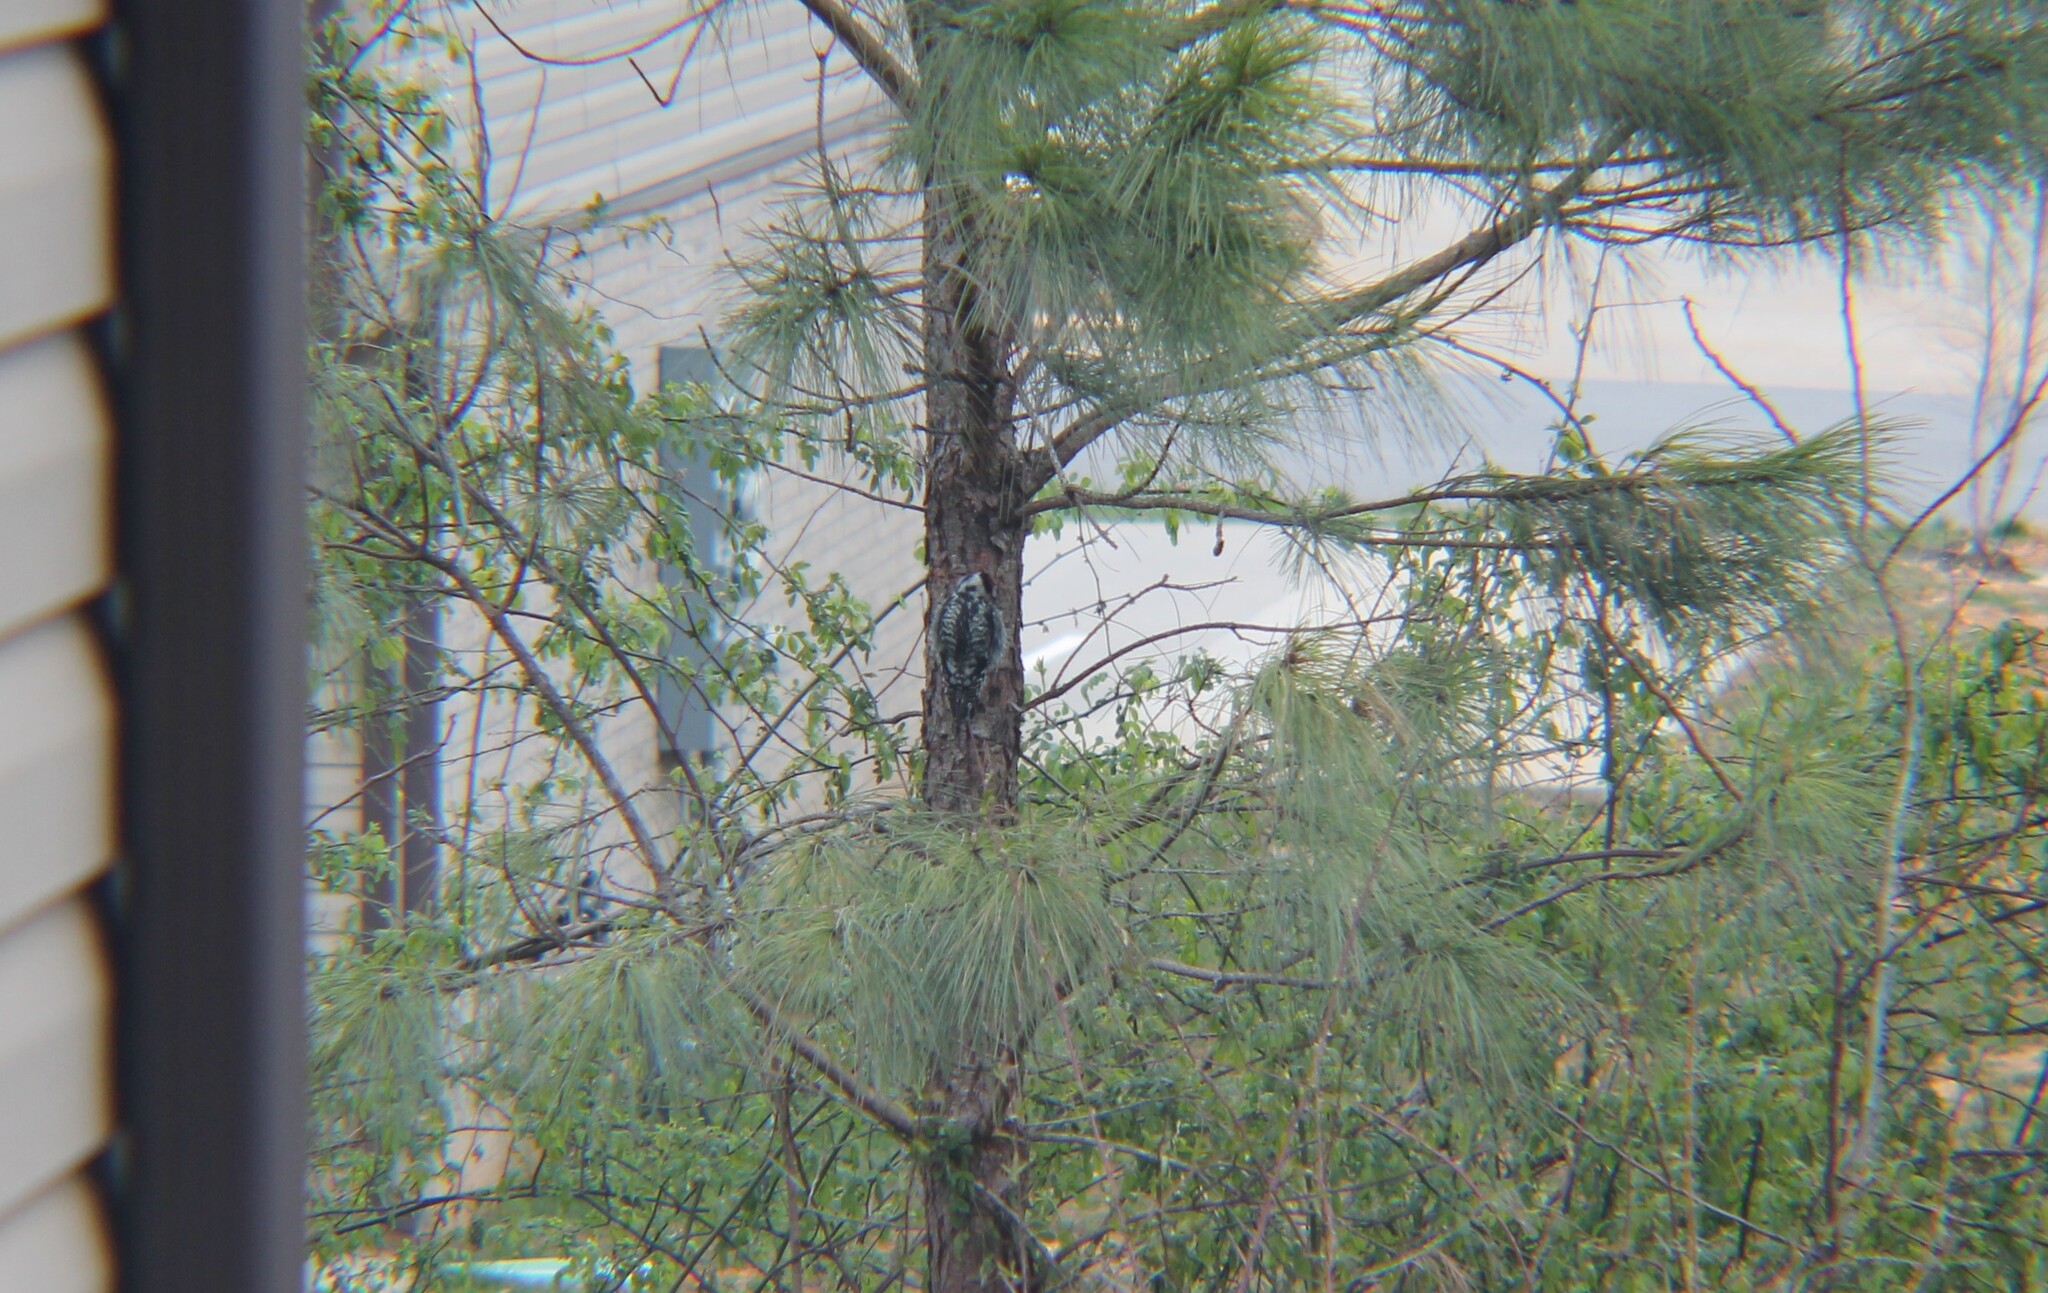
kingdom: Animalia
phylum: Chordata
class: Aves
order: Piciformes
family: Picidae
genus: Sphyrapicus
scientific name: Sphyrapicus varius
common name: Yellow-bellied sapsucker
